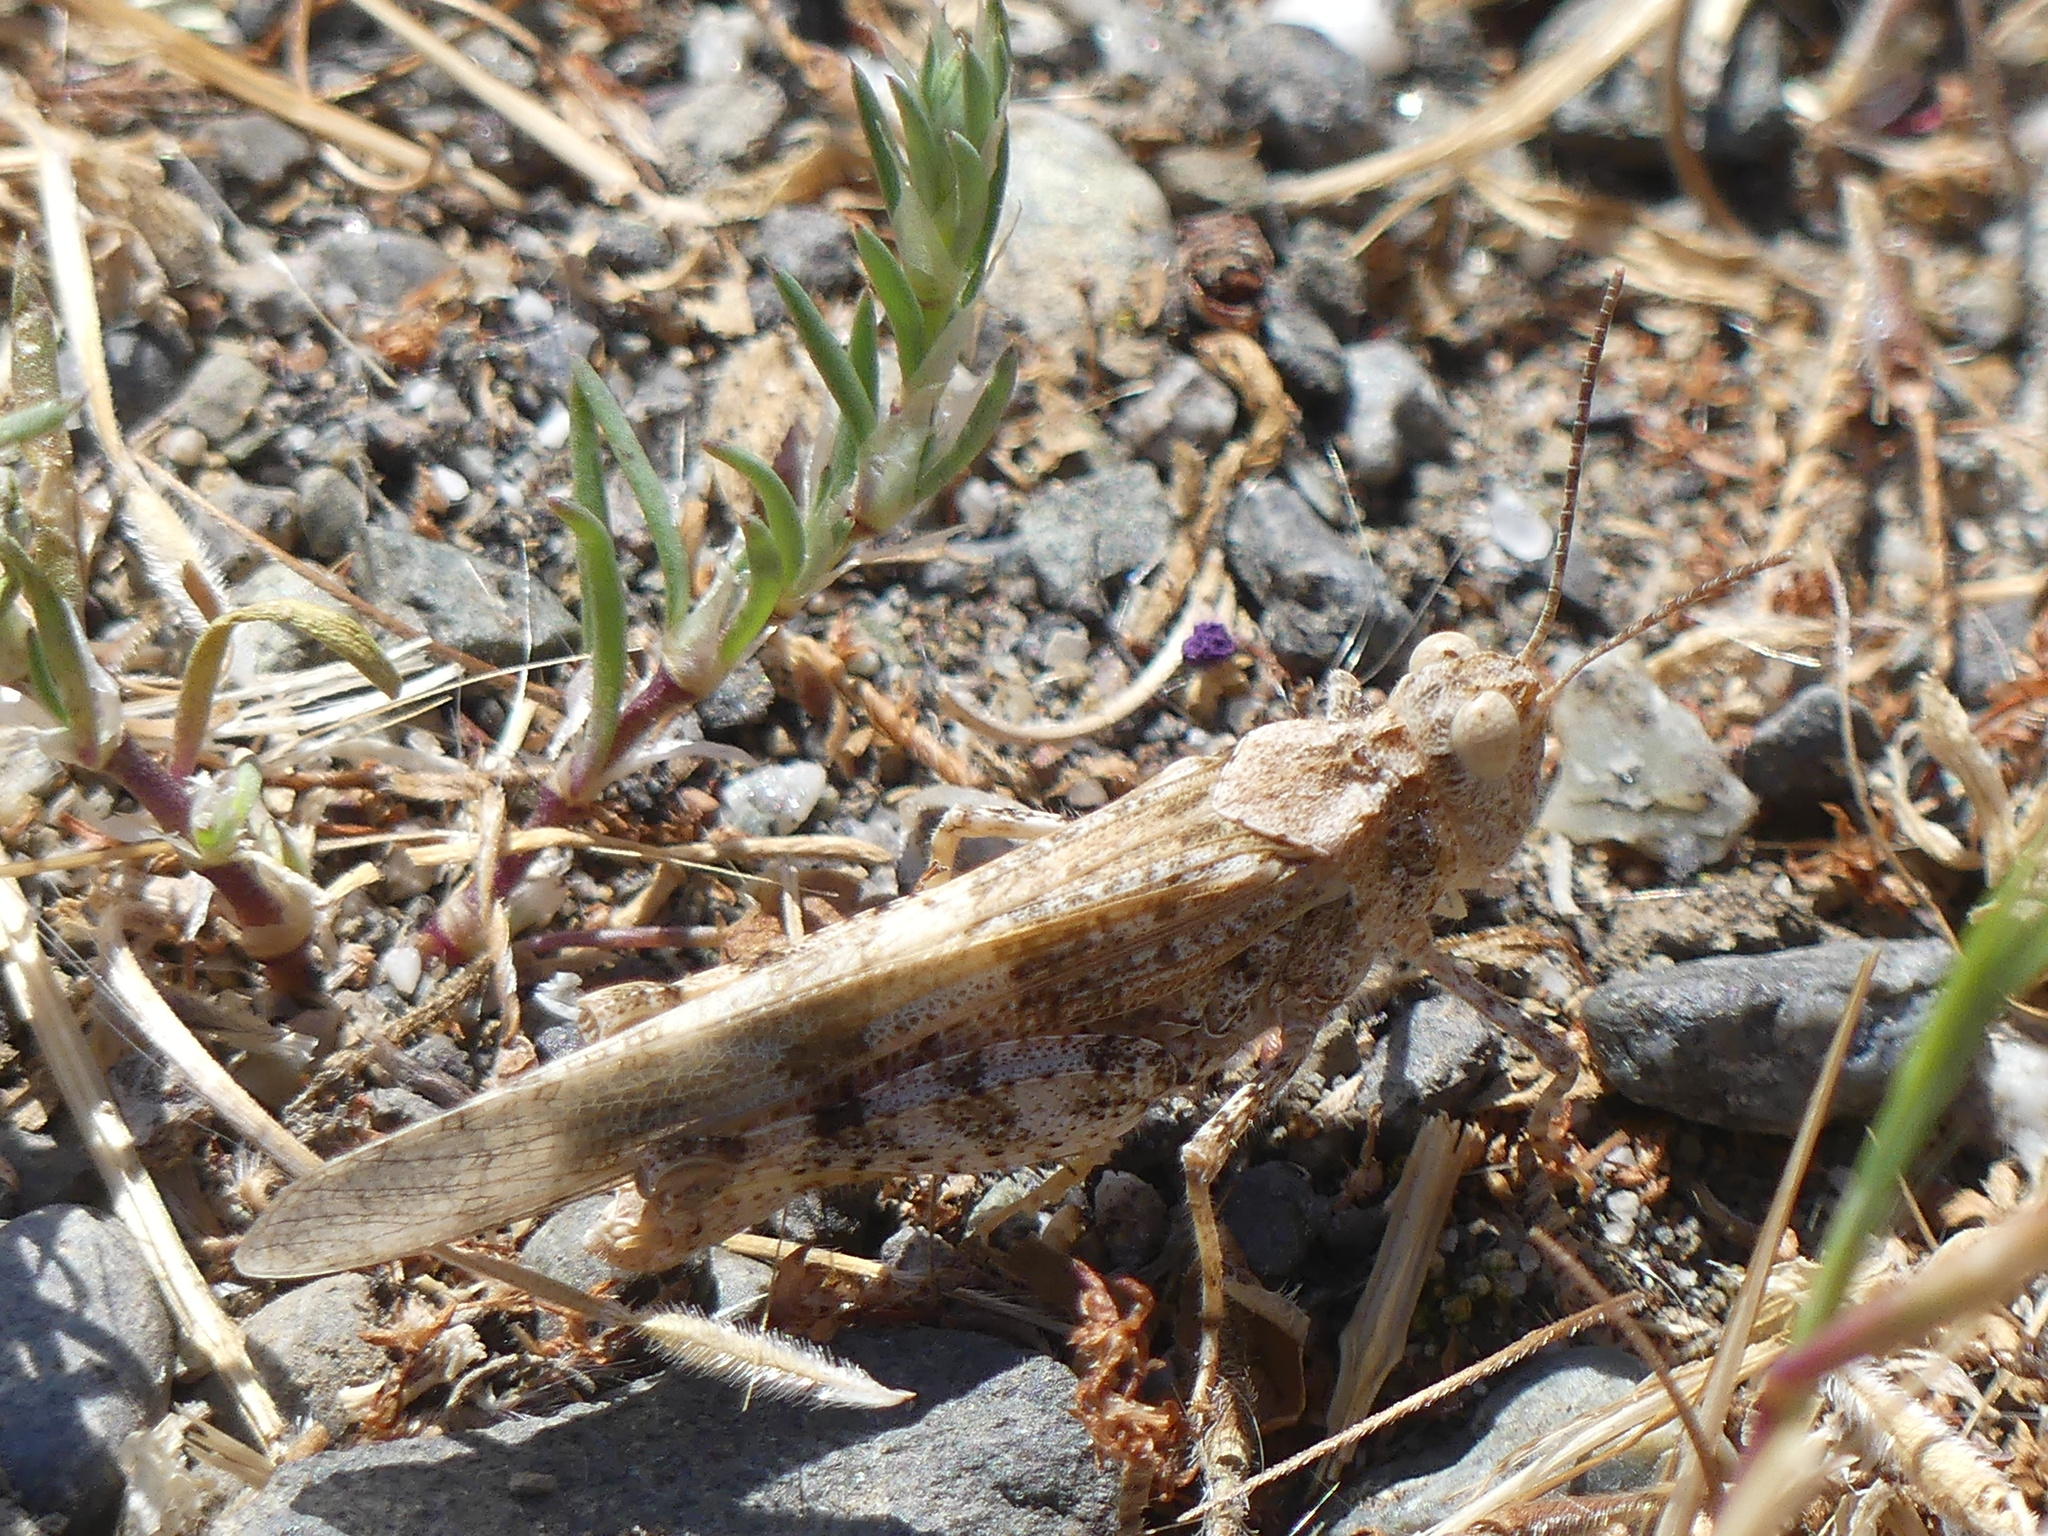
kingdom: Animalia
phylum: Arthropoda
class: Insecta
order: Orthoptera
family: Acrididae
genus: Trimerotropis
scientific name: Trimerotropis pallidipennis
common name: Pallid-winged grasshopper
